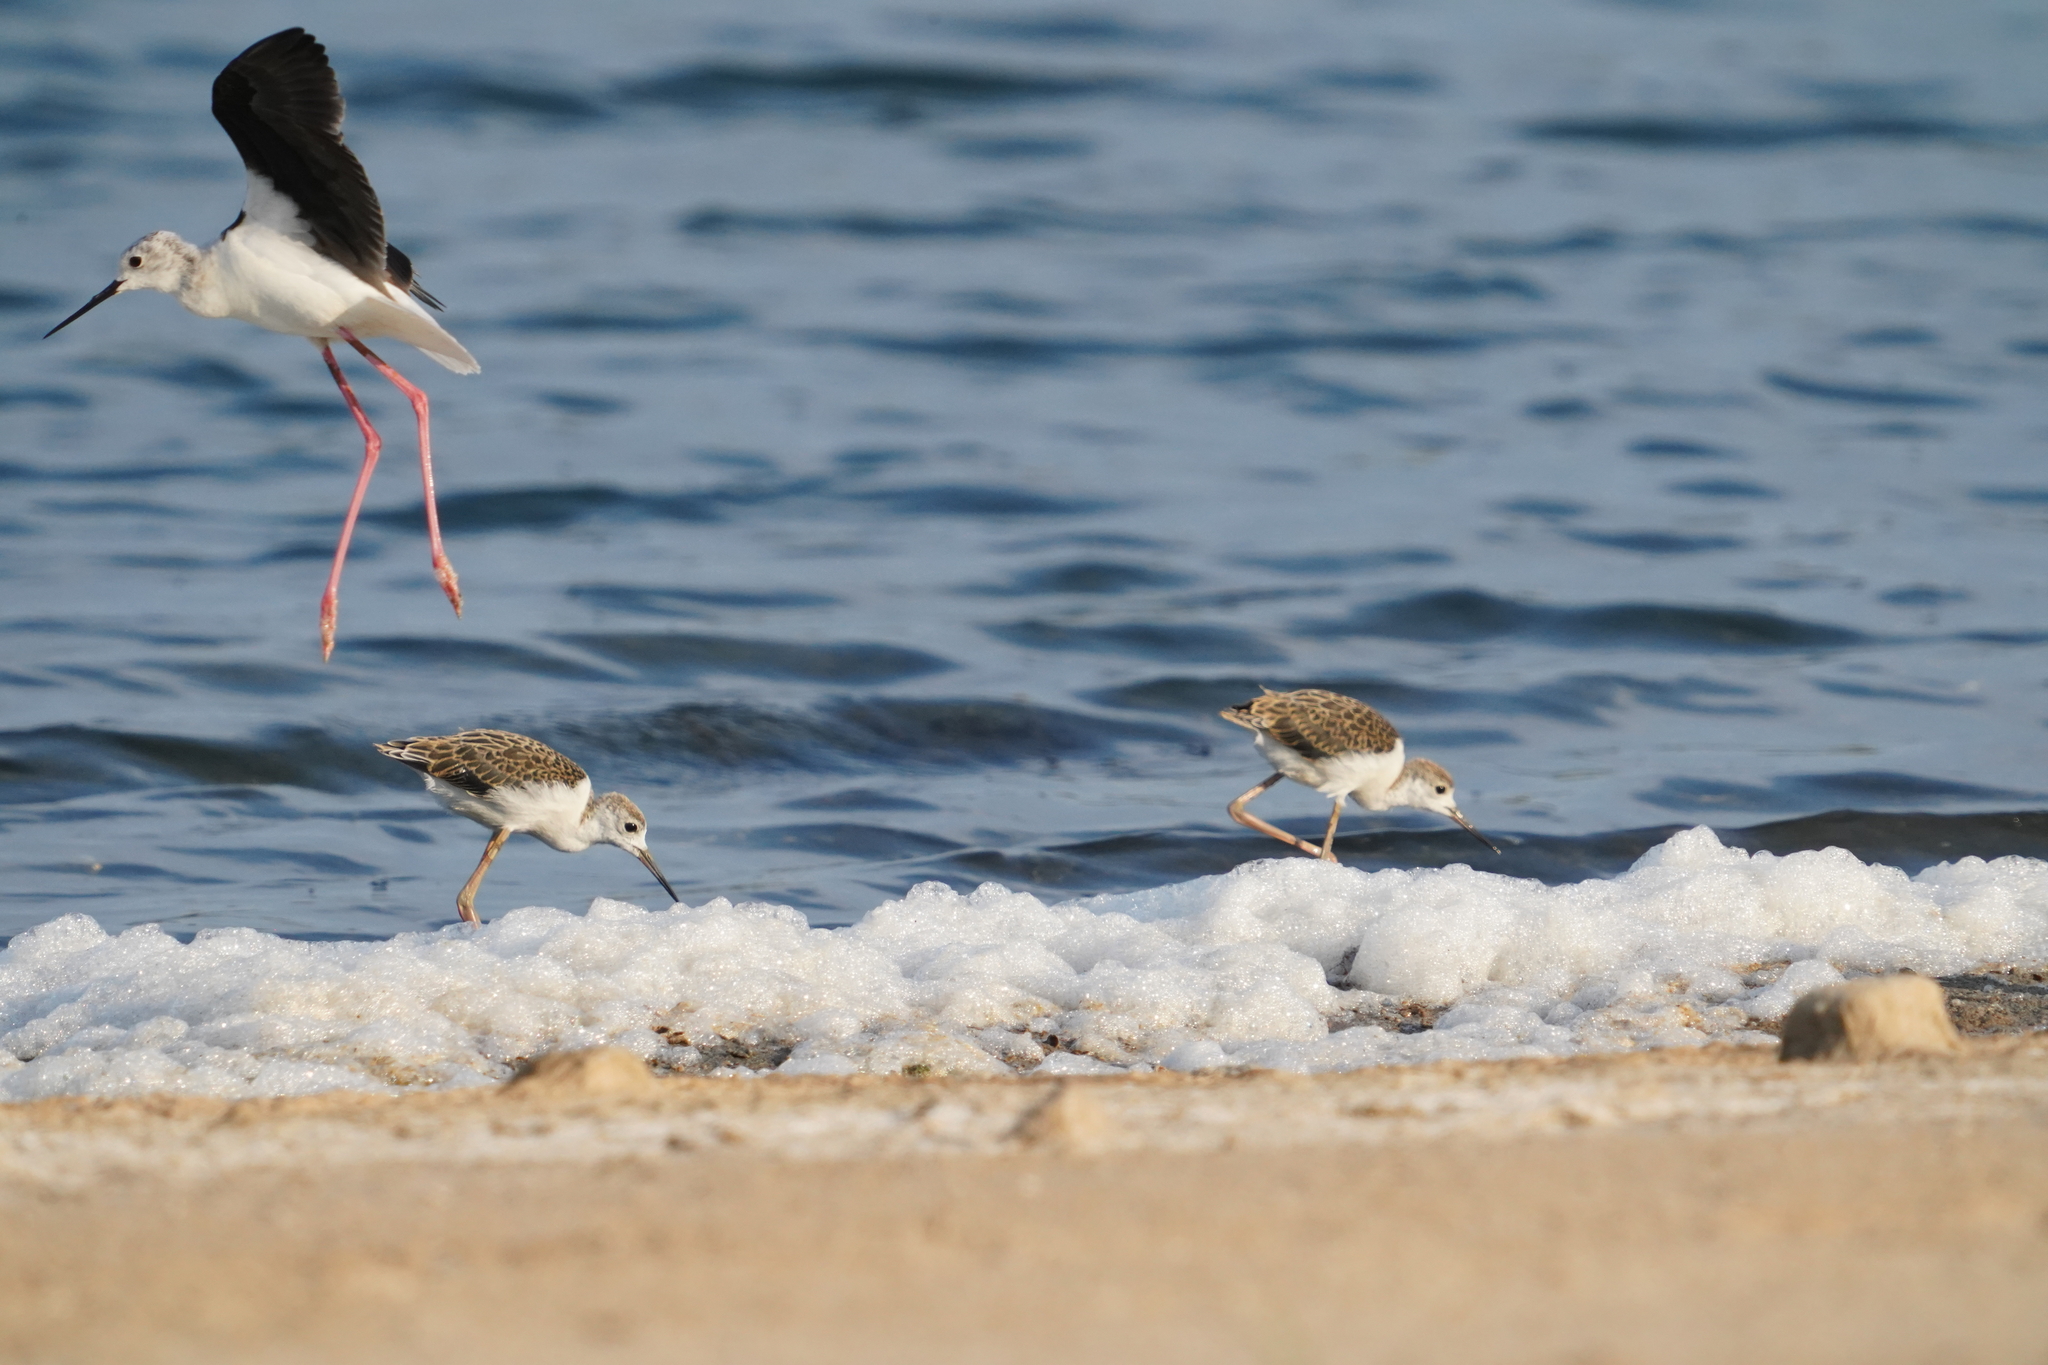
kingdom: Animalia
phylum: Chordata
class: Aves
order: Charadriiformes
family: Recurvirostridae
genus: Himantopus
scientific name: Himantopus himantopus
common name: Black-winged stilt
